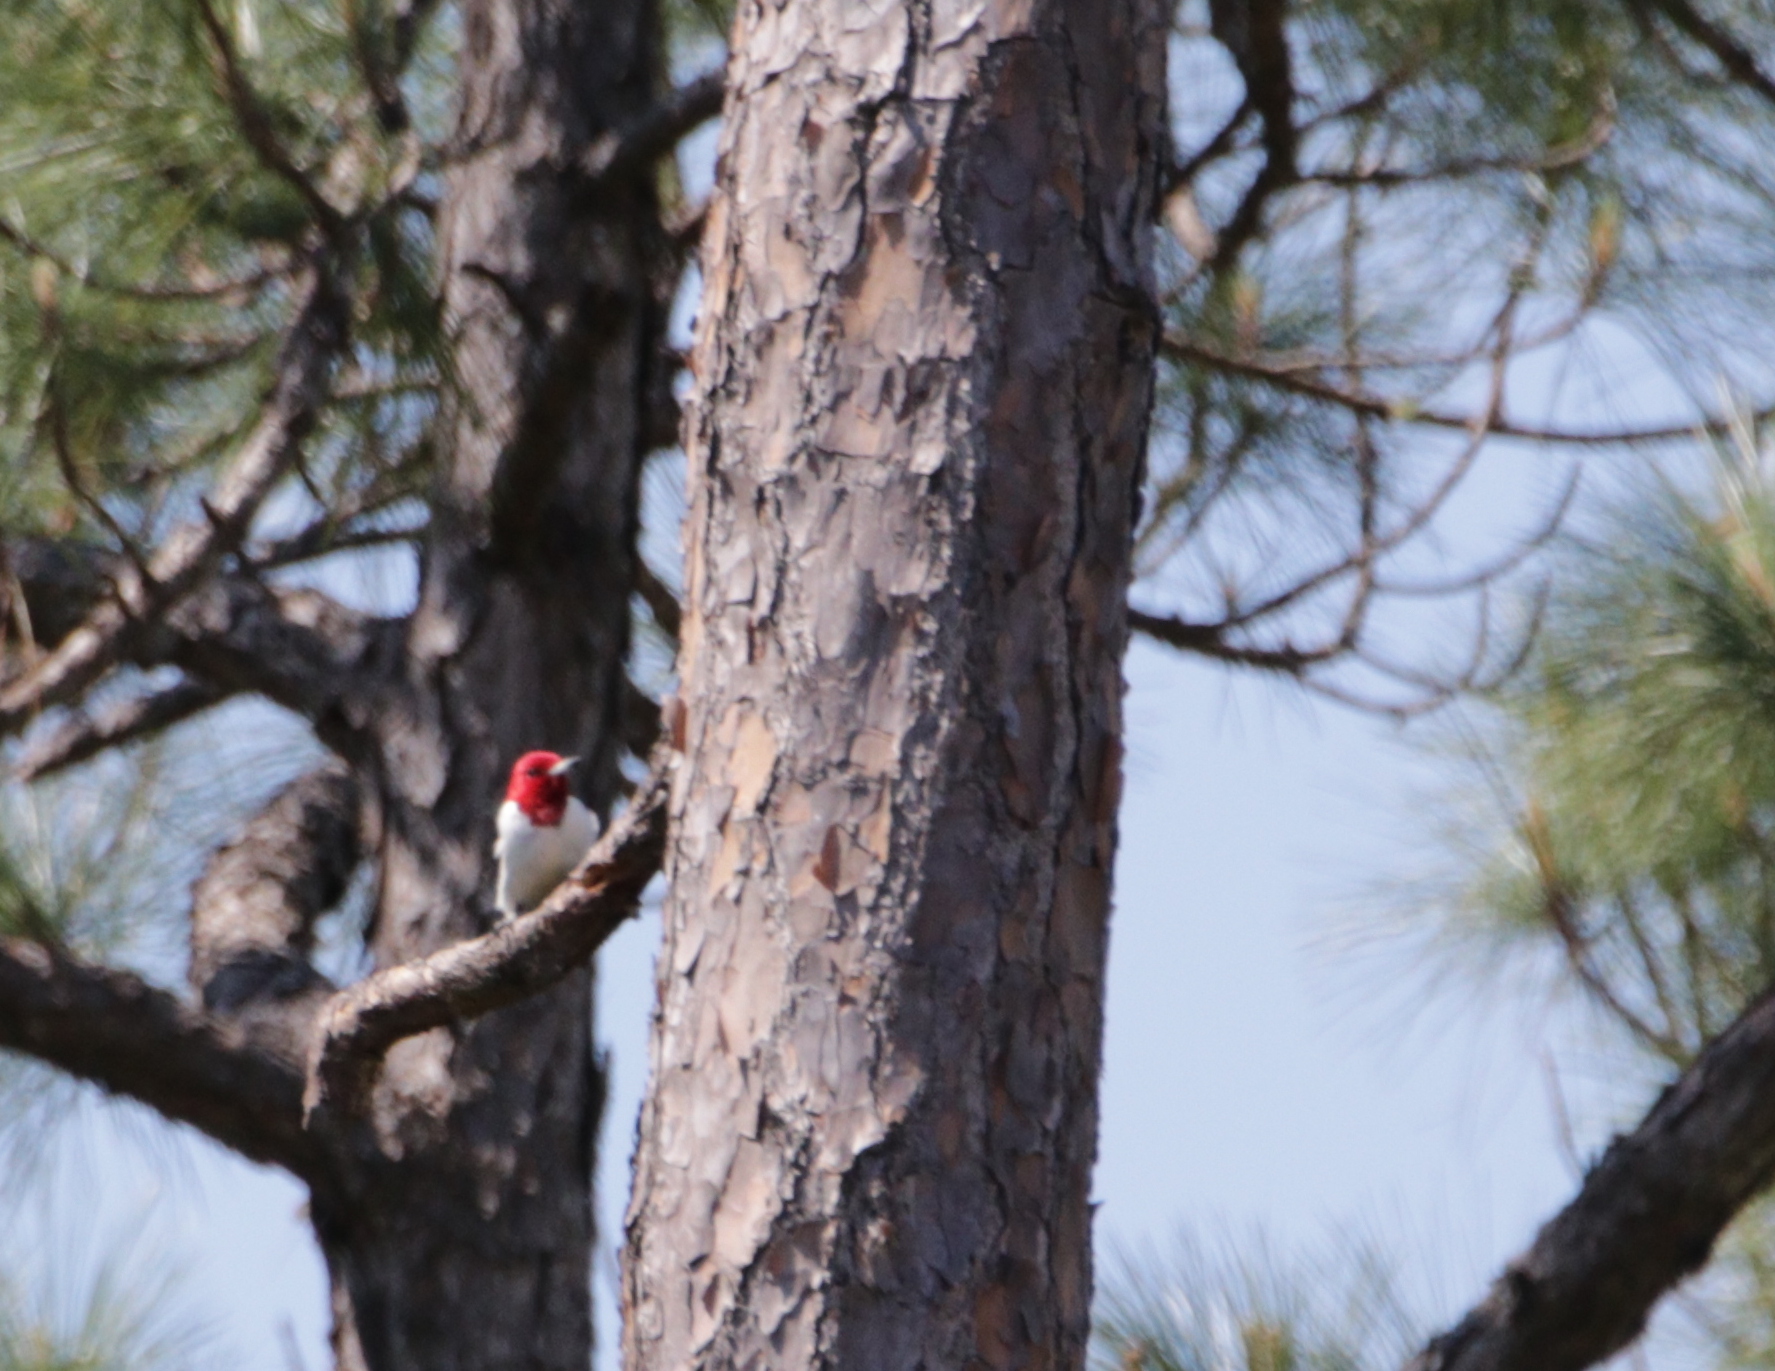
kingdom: Animalia
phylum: Chordata
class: Aves
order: Piciformes
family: Picidae
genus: Melanerpes
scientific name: Melanerpes erythrocephalus
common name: Red-headed woodpecker
